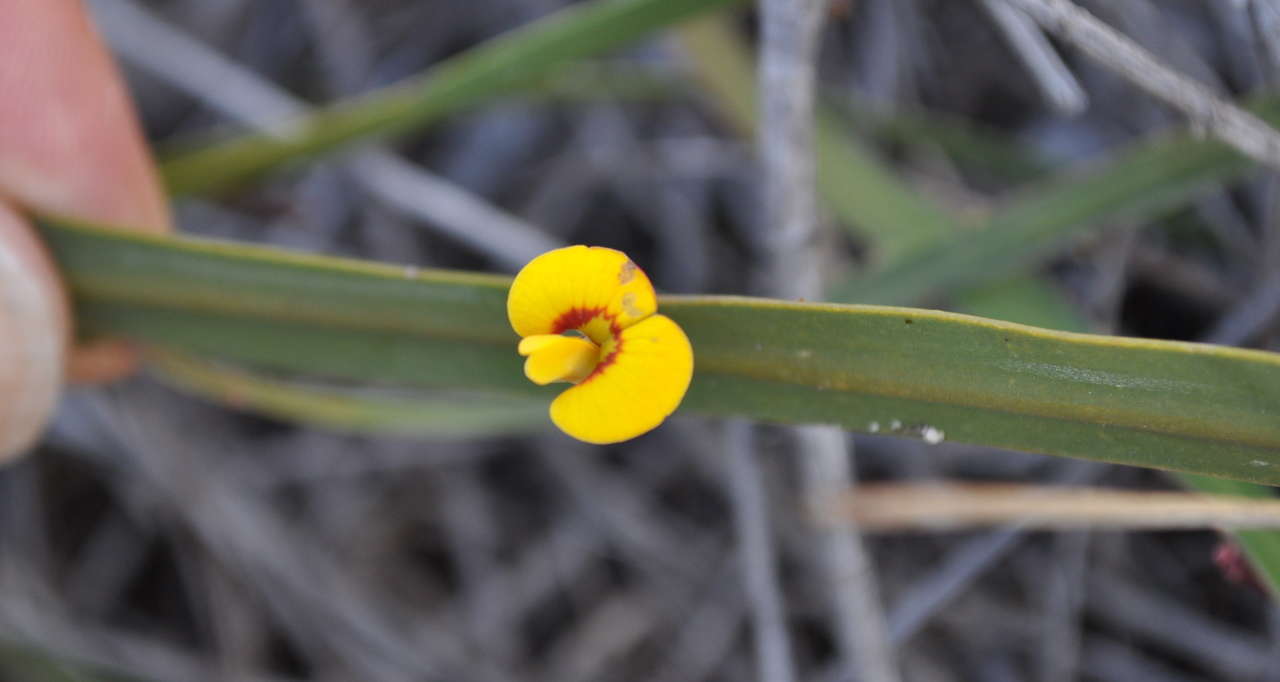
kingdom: Plantae
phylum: Tracheophyta
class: Magnoliopsida
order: Fabales
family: Fabaceae
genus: Bossiaea
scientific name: Bossiaea ensata
